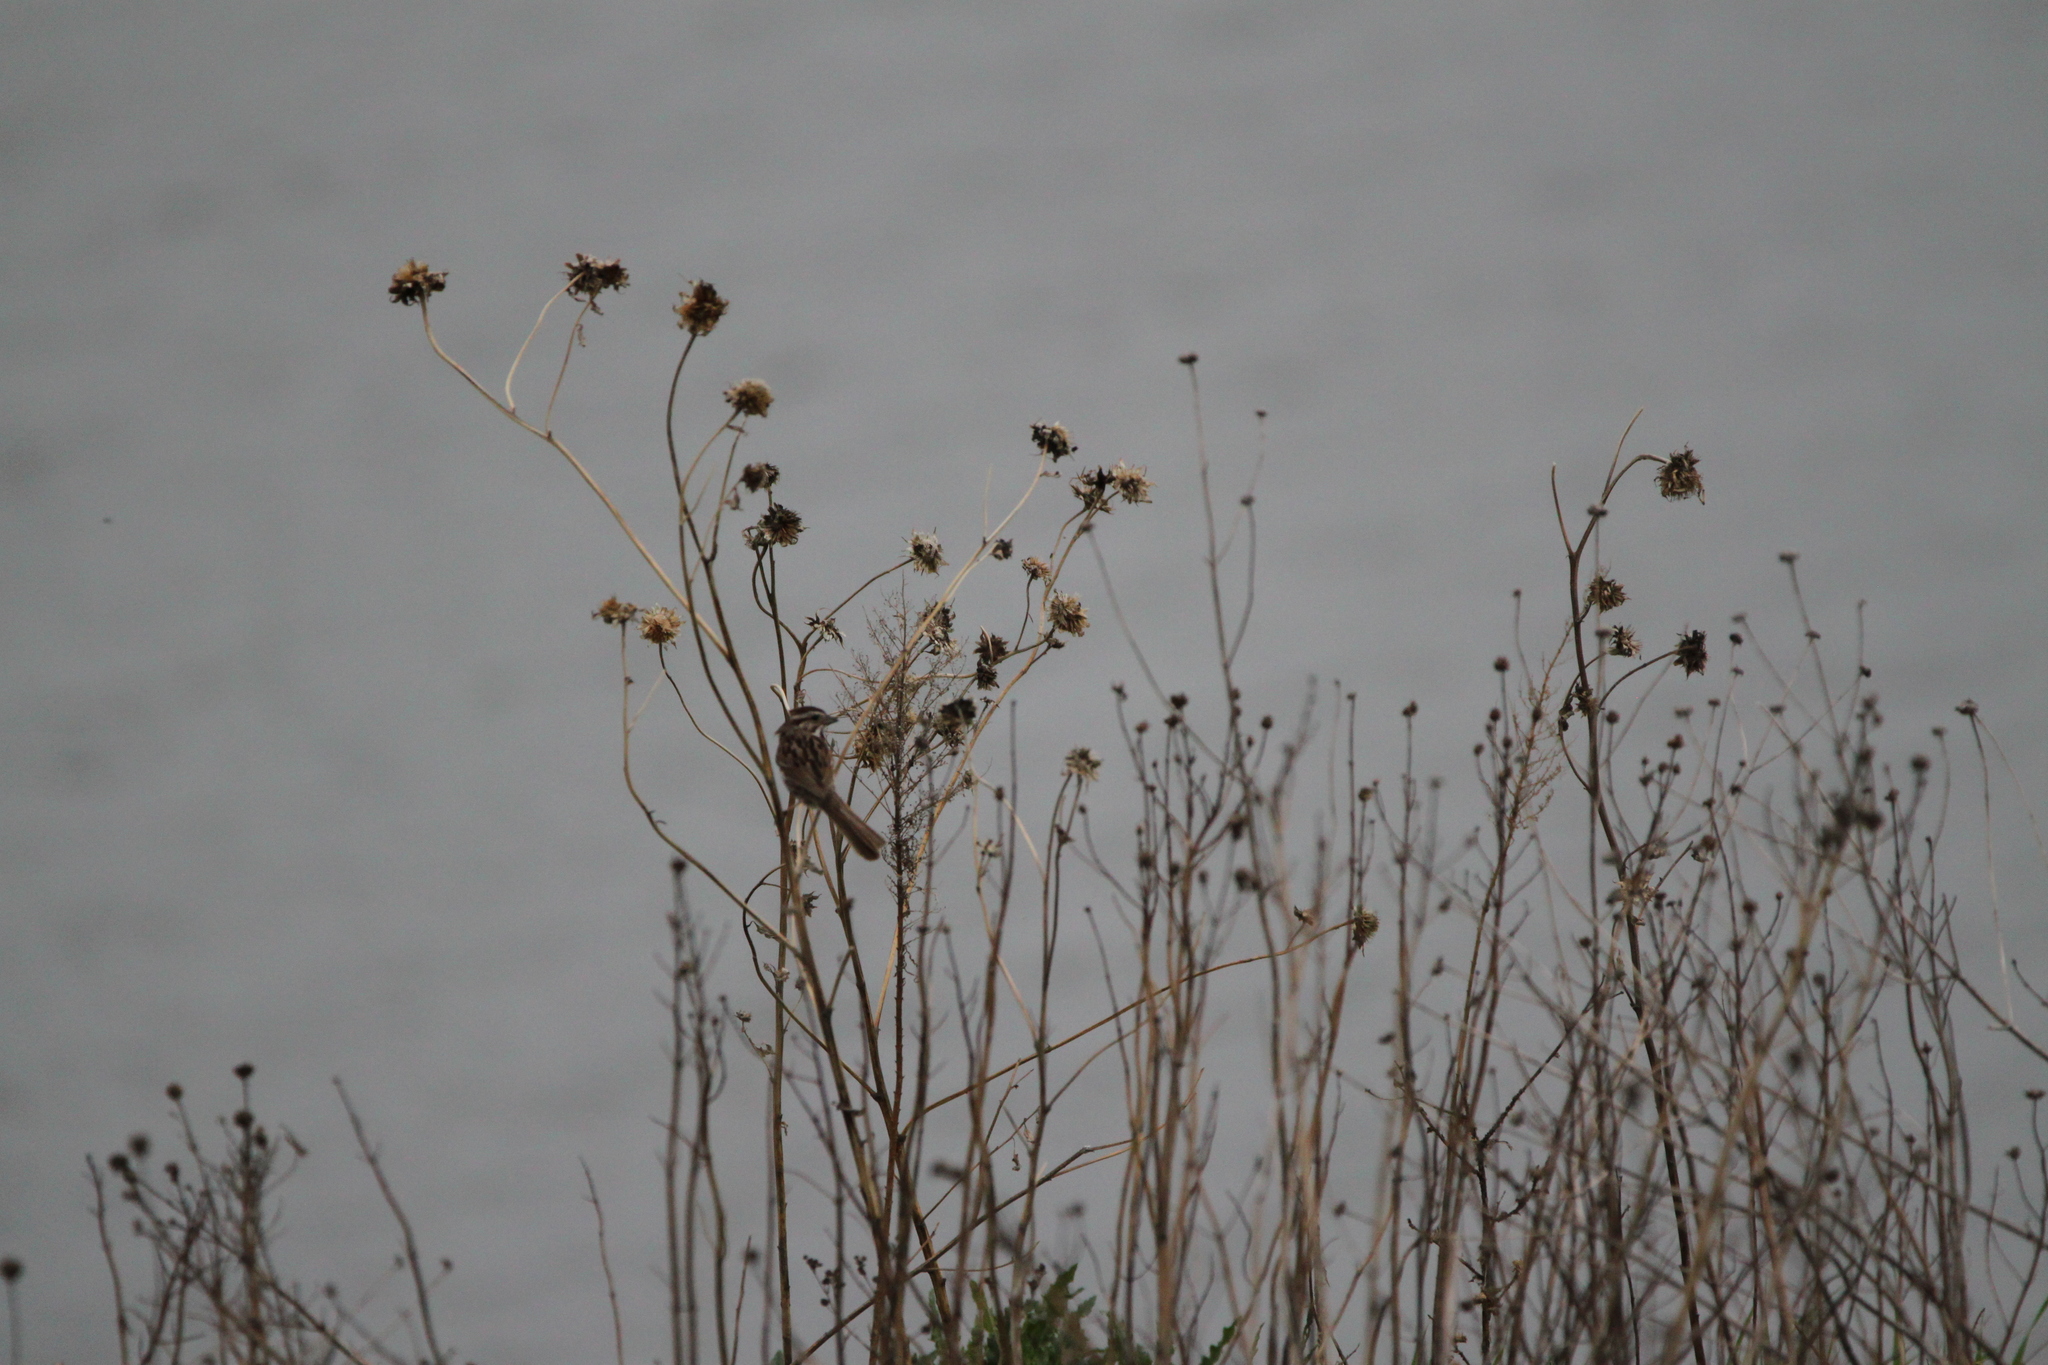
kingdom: Animalia
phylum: Chordata
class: Aves
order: Passeriformes
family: Passerellidae
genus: Melospiza
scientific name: Melospiza melodia
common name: Song sparrow
